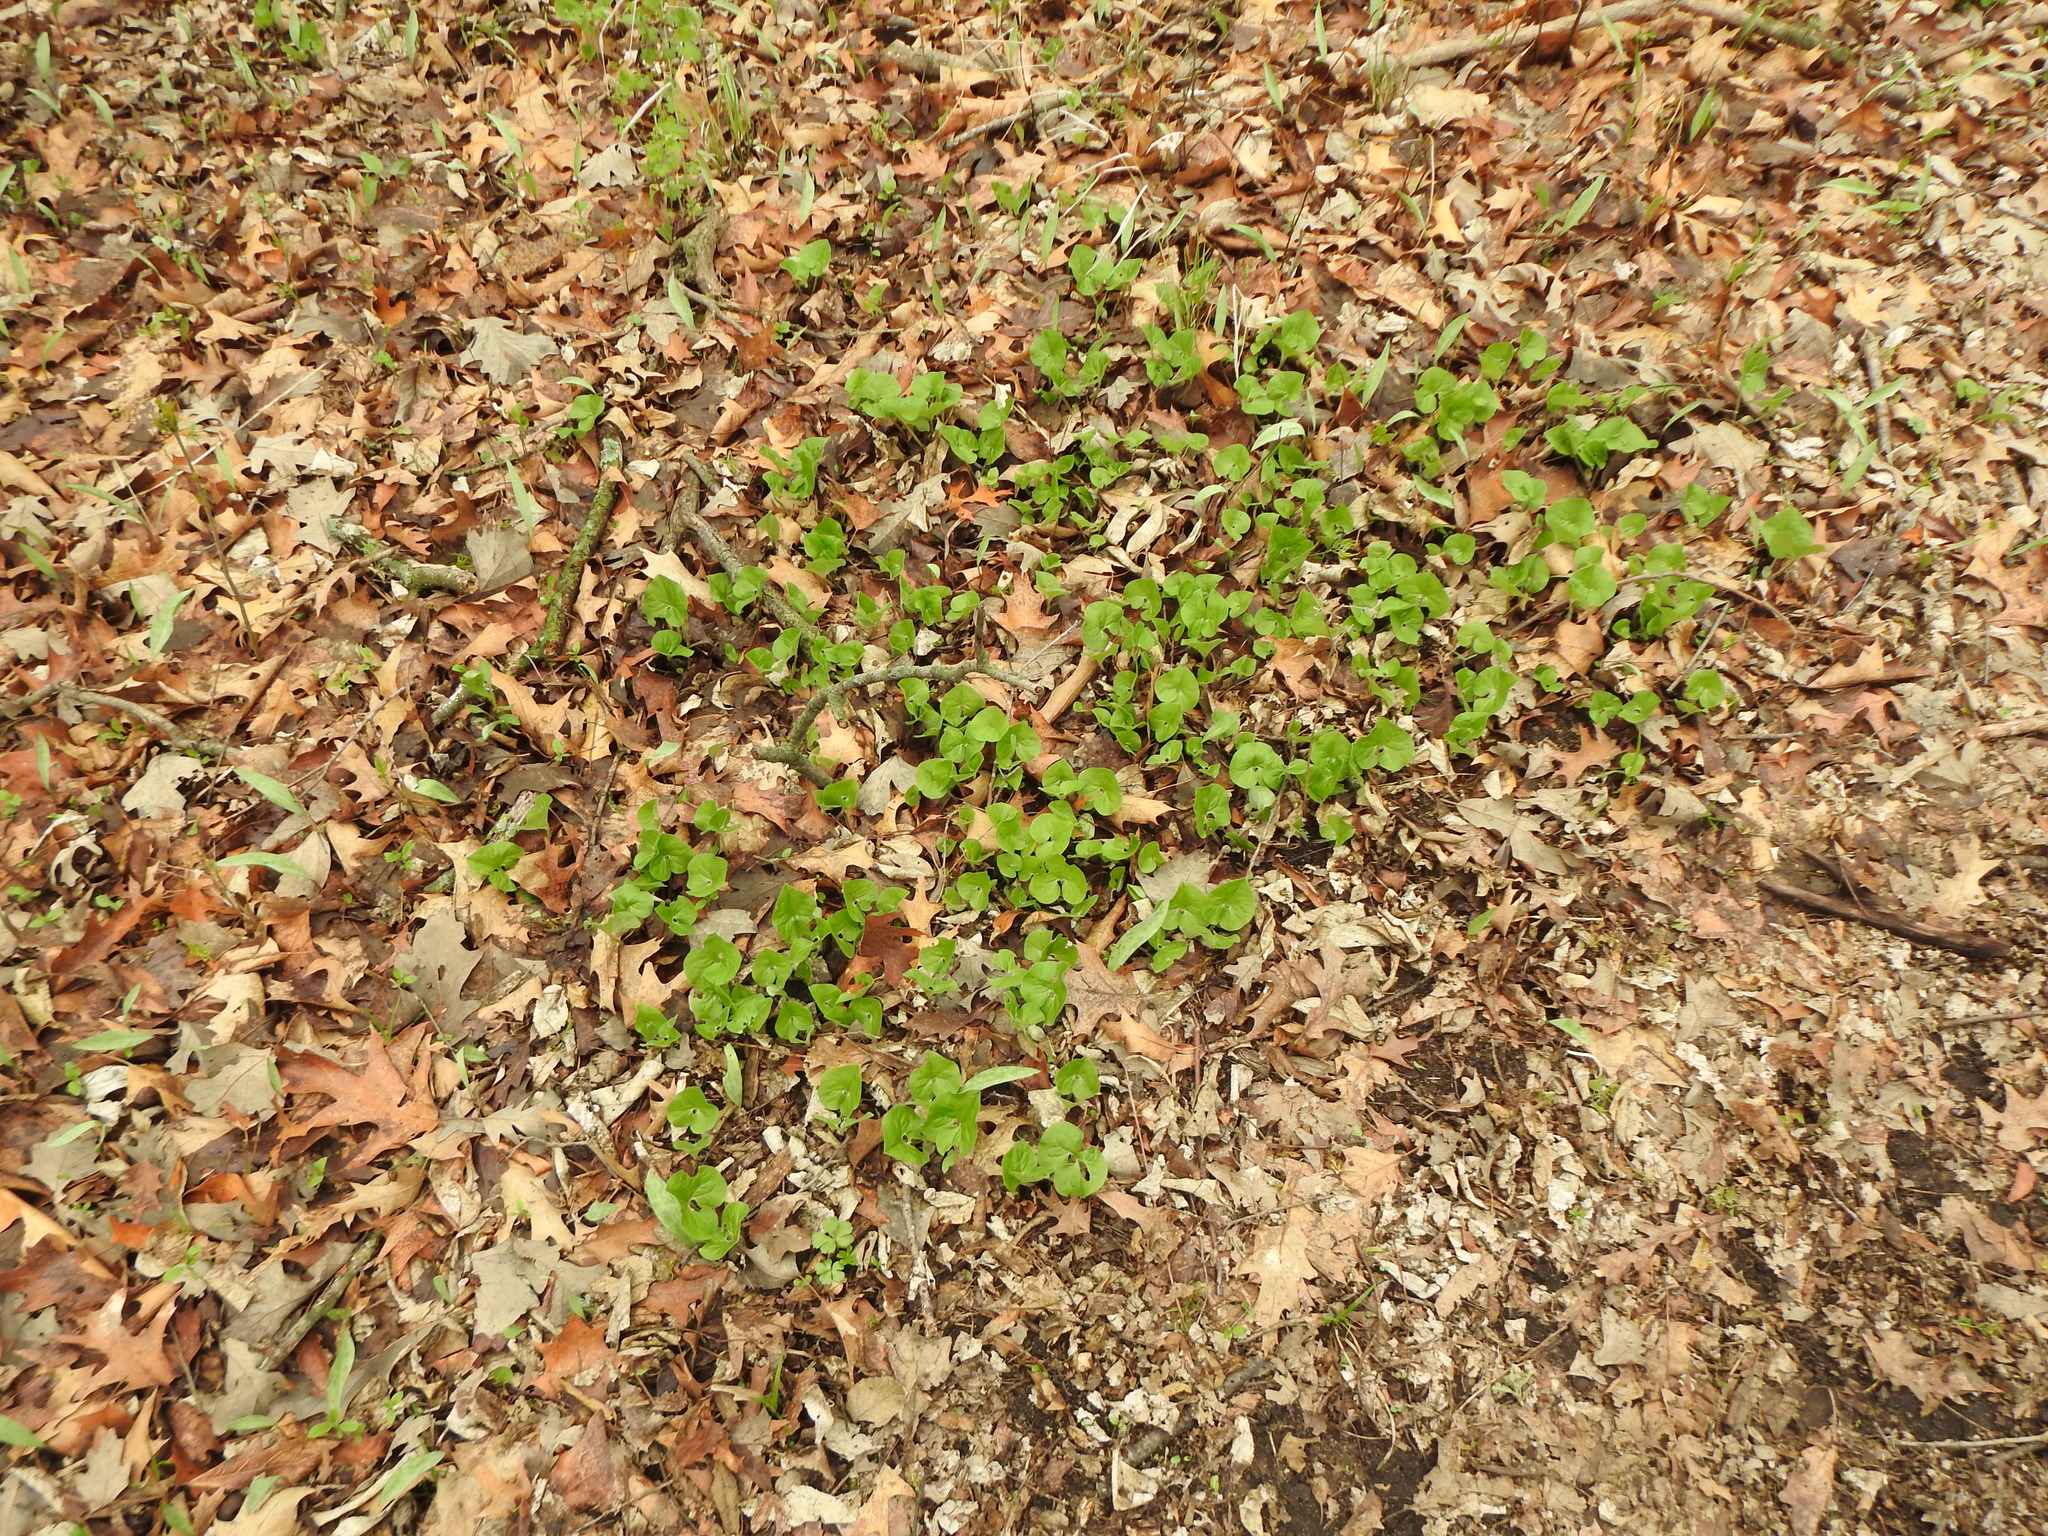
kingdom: Plantae
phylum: Tracheophyta
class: Magnoliopsida
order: Piperales
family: Aristolochiaceae
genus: Asarum
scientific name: Asarum canadense
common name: Wild ginger
